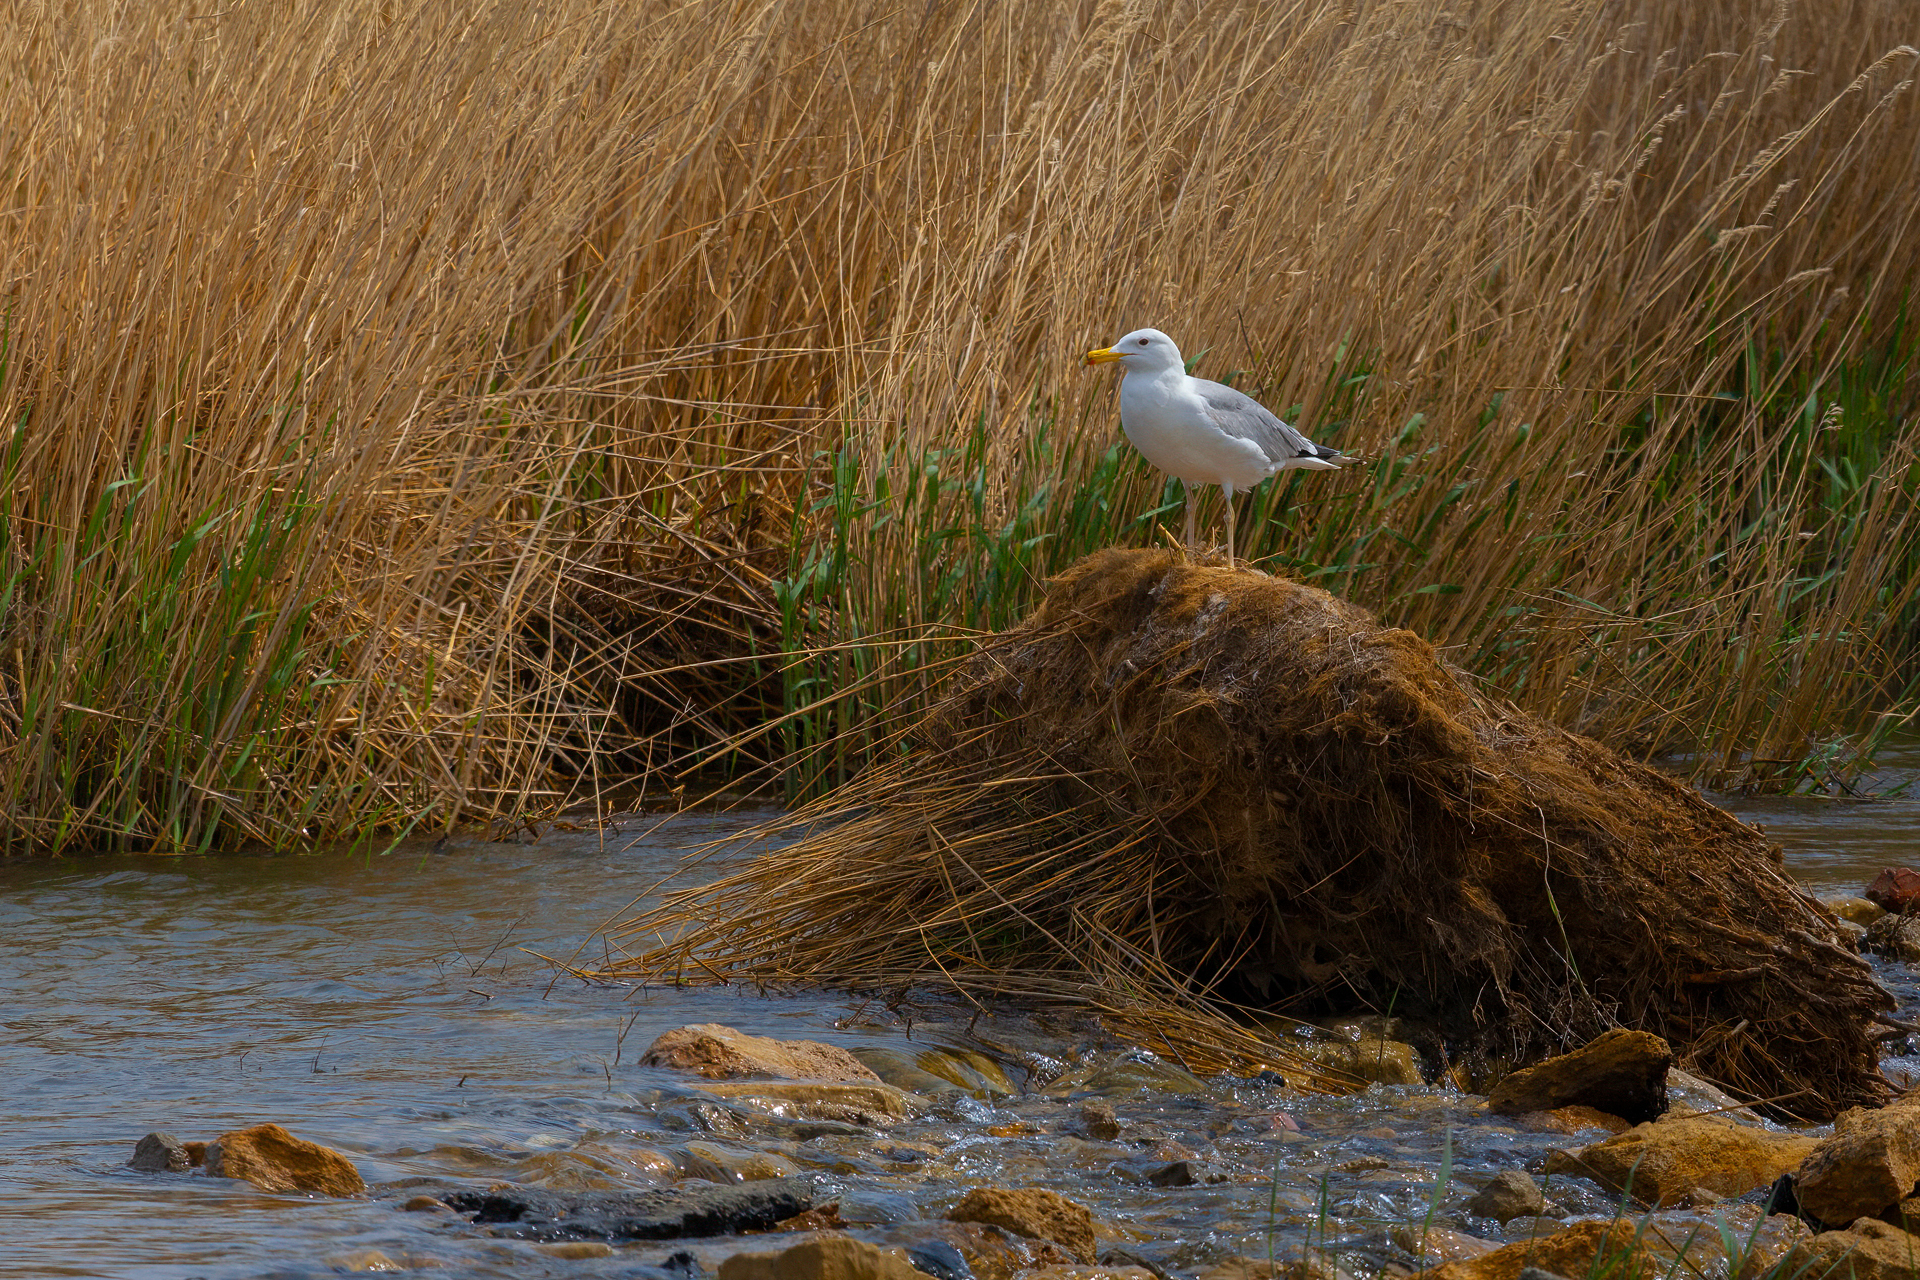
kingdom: Animalia
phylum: Chordata
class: Aves
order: Charadriiformes
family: Laridae
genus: Larus
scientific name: Larus cachinnans
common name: Caspian gull
